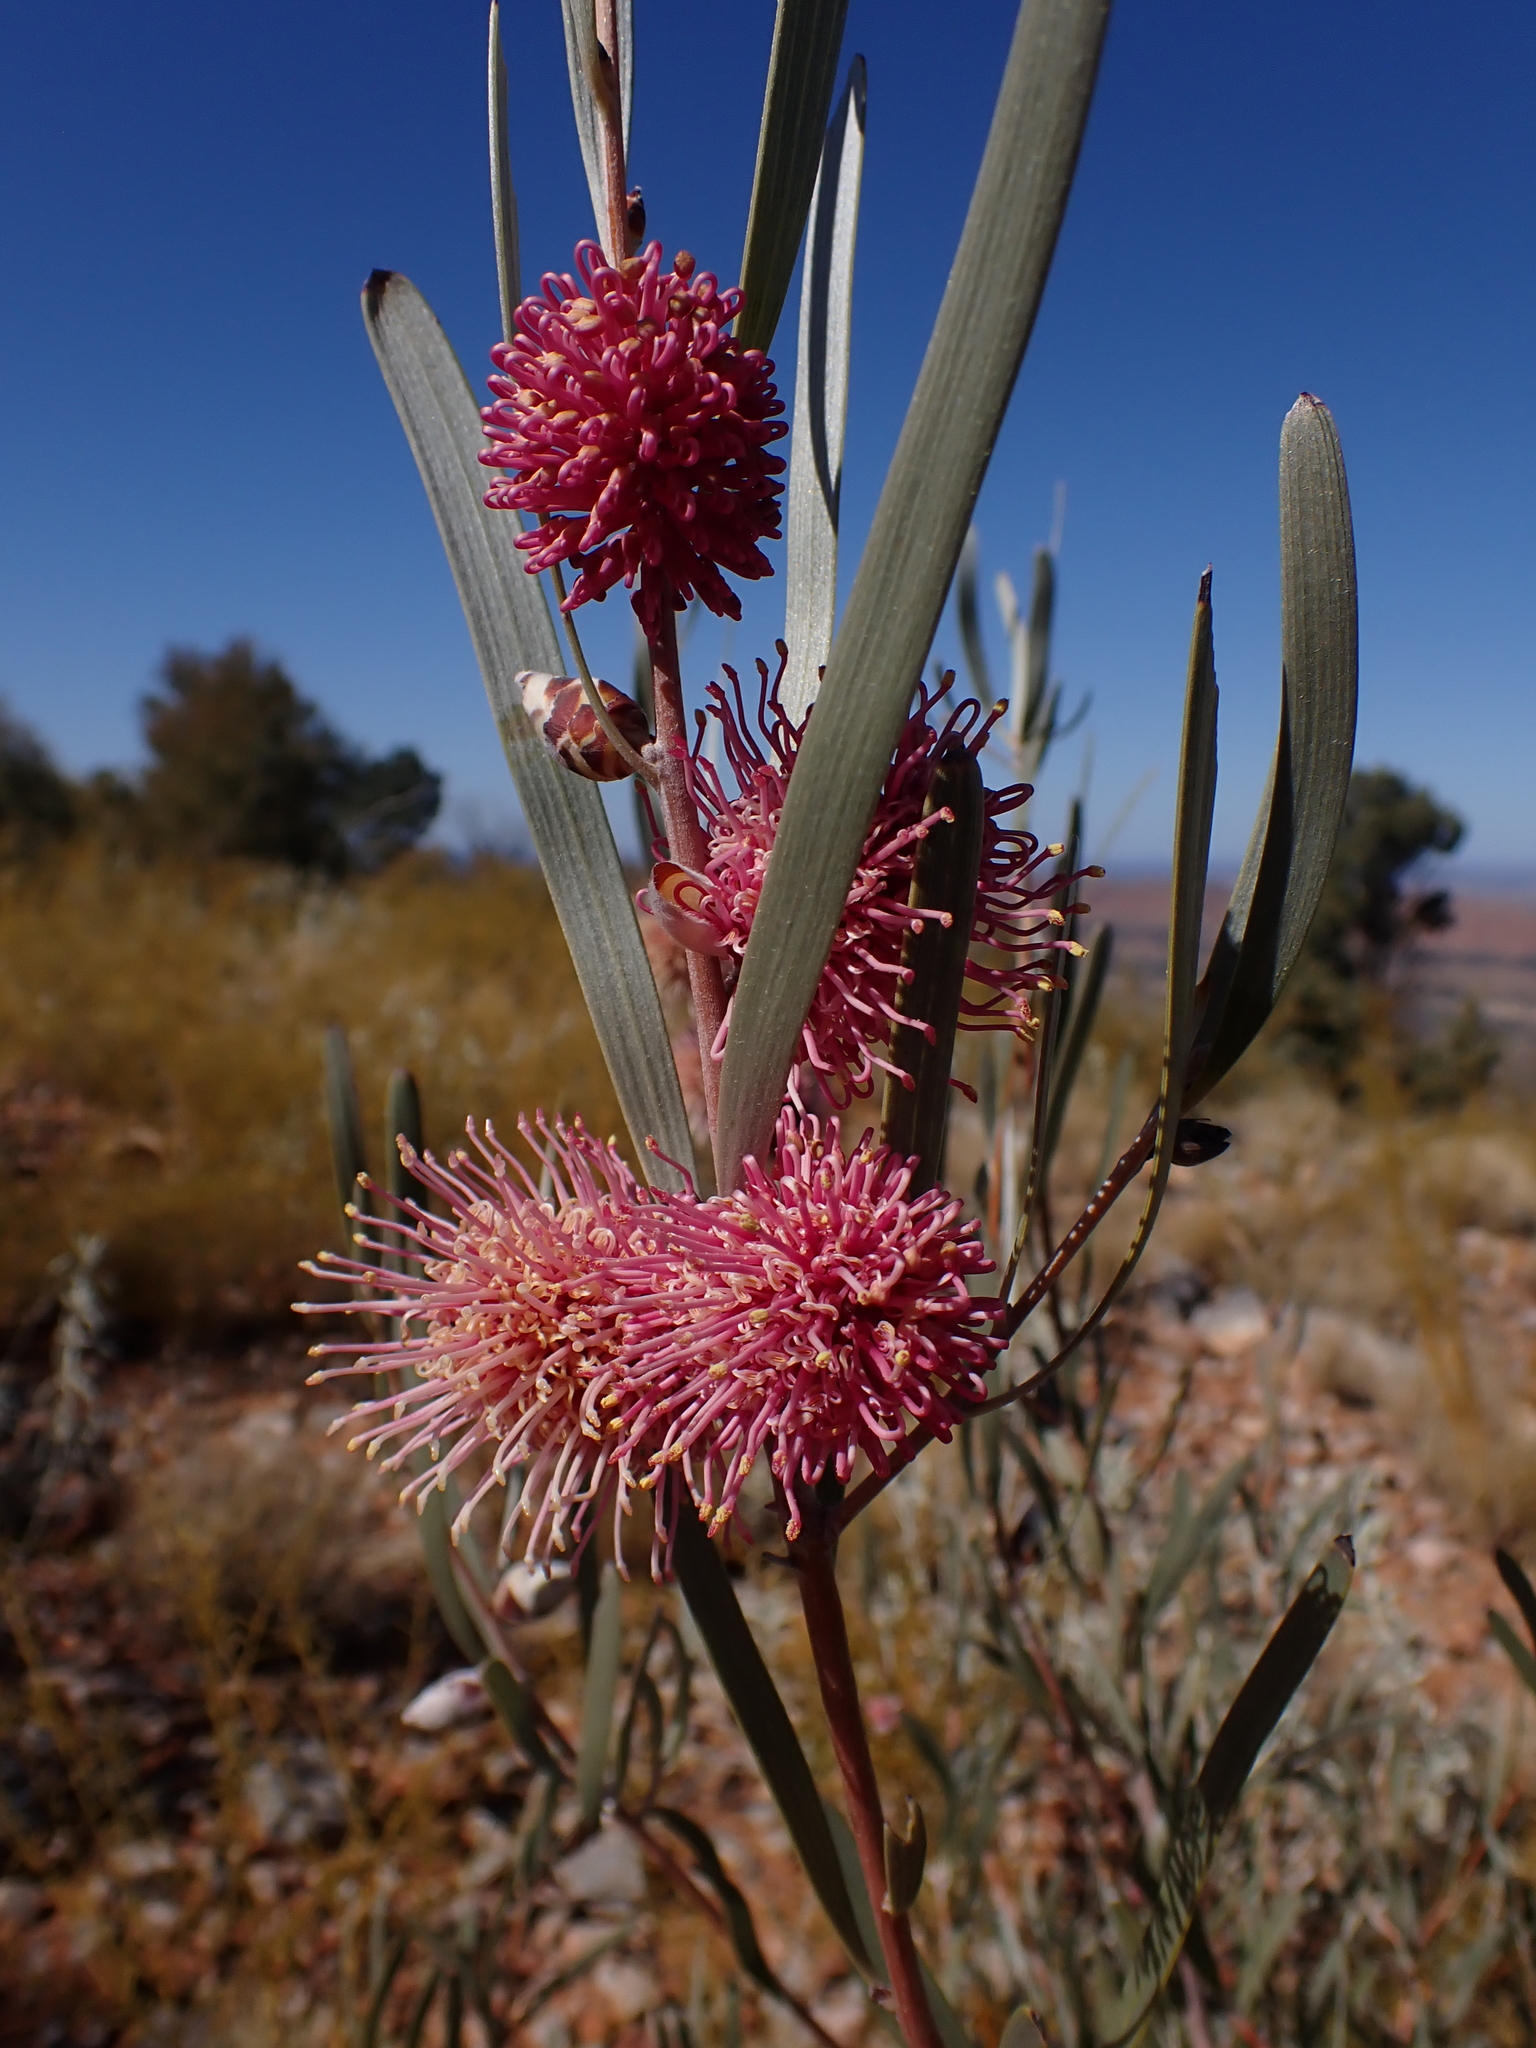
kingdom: Plantae
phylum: Tracheophyta
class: Magnoliopsida
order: Proteales
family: Proteaceae
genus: Hakea
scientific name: Hakea grammatophylla
